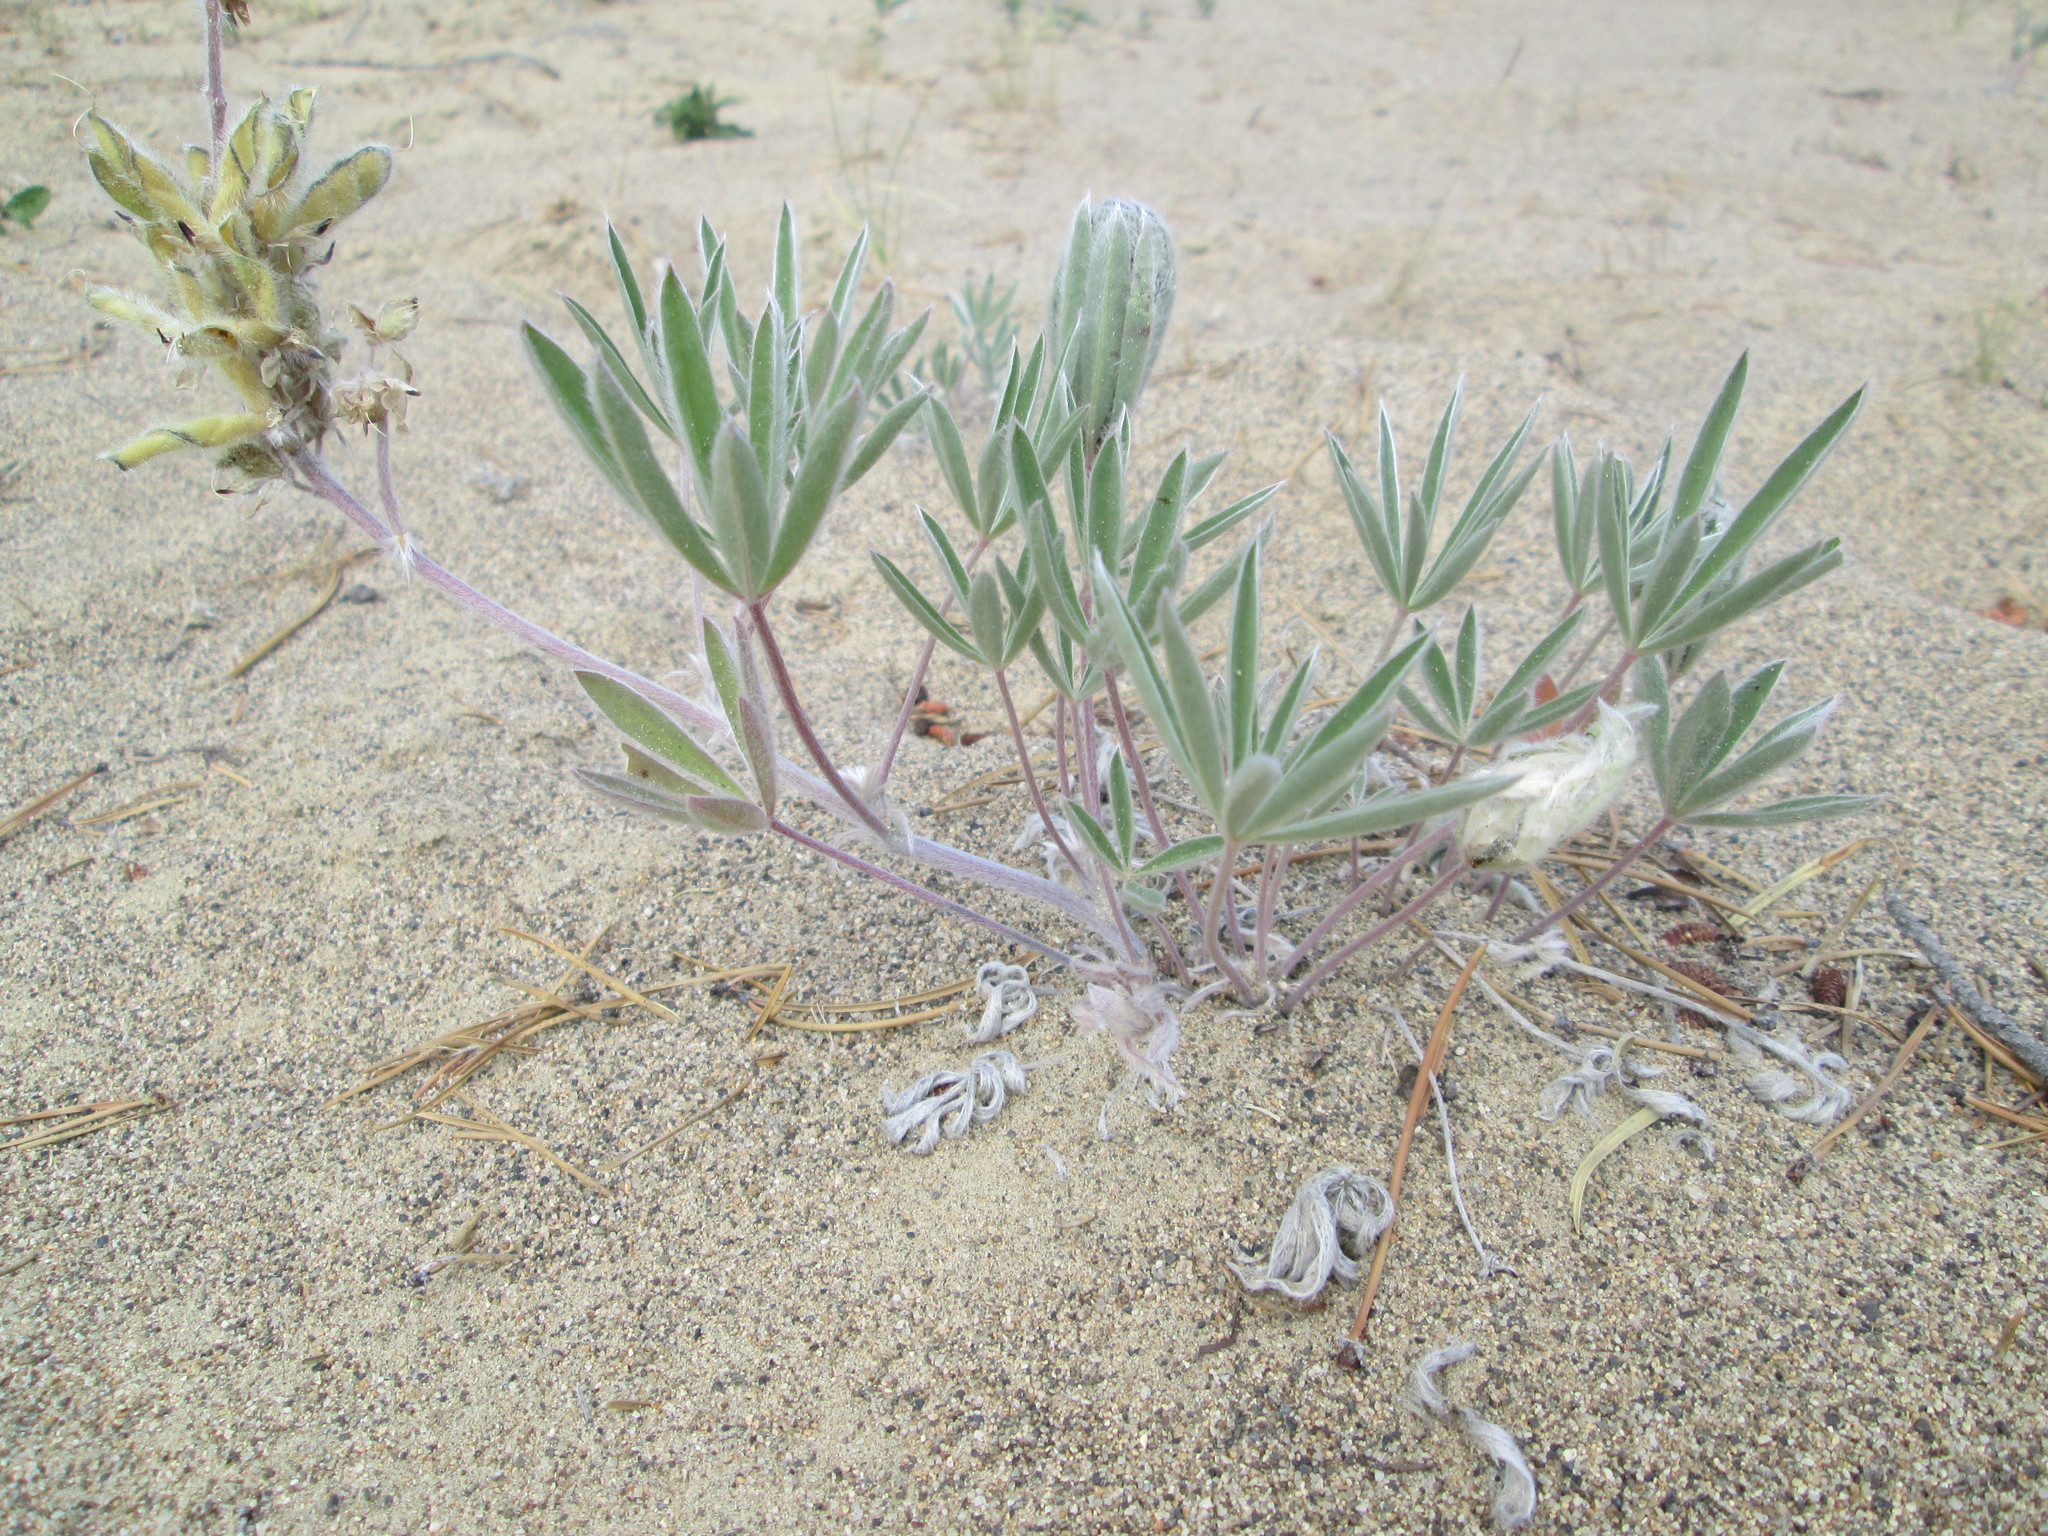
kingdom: Plantae
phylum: Tracheophyta
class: Magnoliopsida
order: Fabales
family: Fabaceae
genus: Lupinus
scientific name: Lupinus kuschei
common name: Kusche's lupine
